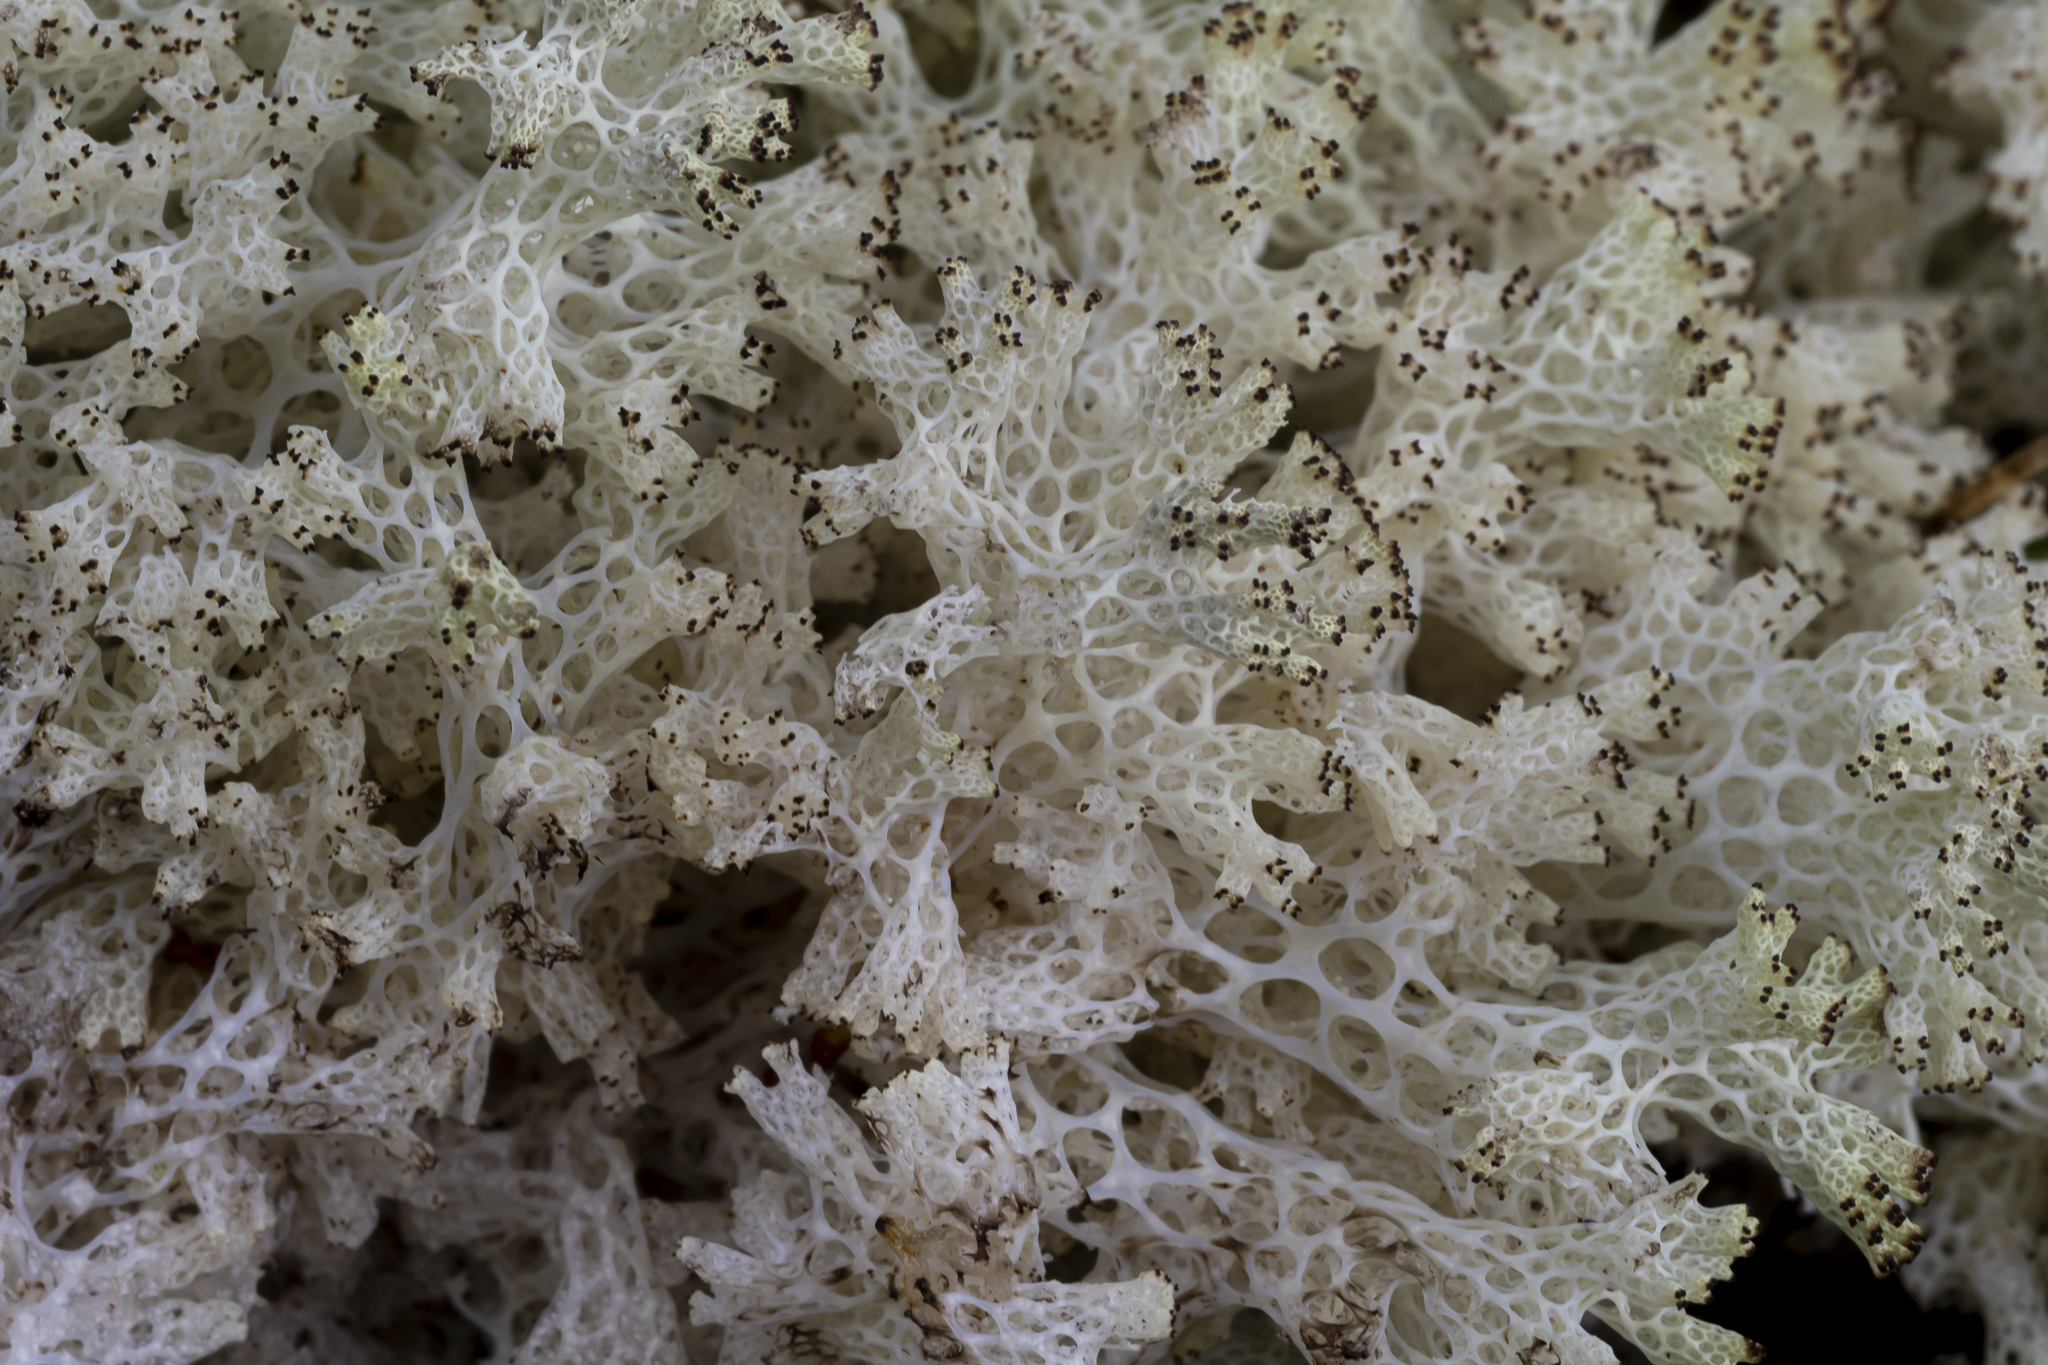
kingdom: Fungi
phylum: Ascomycota
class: Lecanoromycetes
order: Lecanorales
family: Cladoniaceae
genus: Pulchrocladia
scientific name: Pulchrocladia retipora
